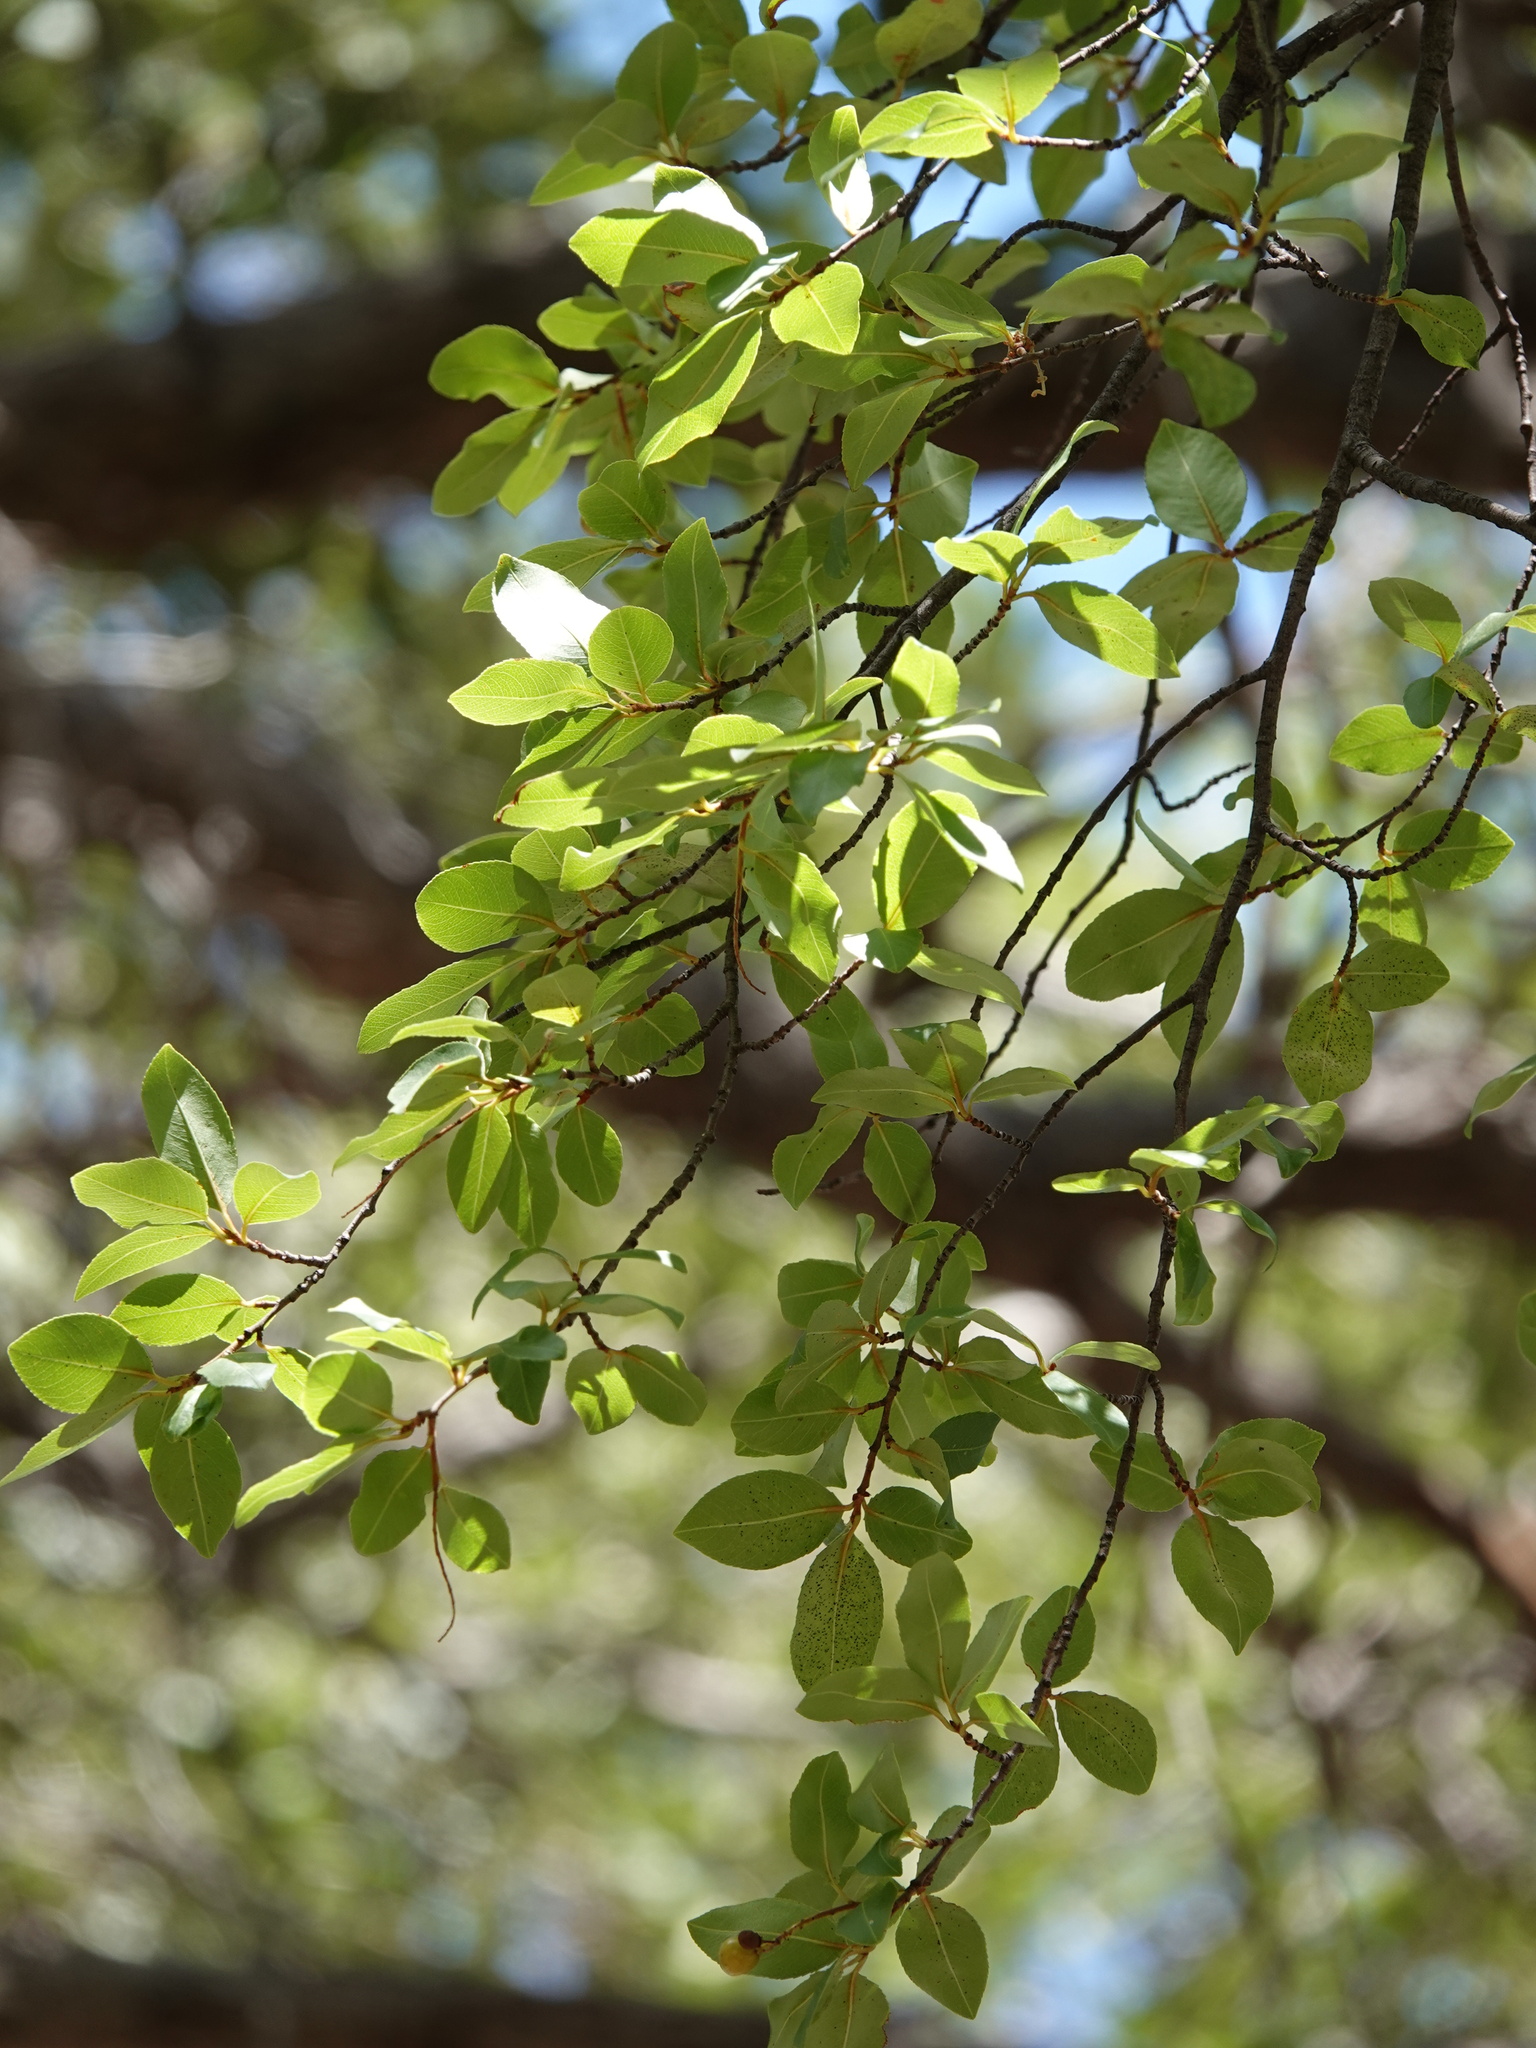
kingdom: Plantae
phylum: Tracheophyta
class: Magnoliopsida
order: Rosales
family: Rosaceae
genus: Prunus
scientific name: Prunus virginiana
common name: Chokecherry
